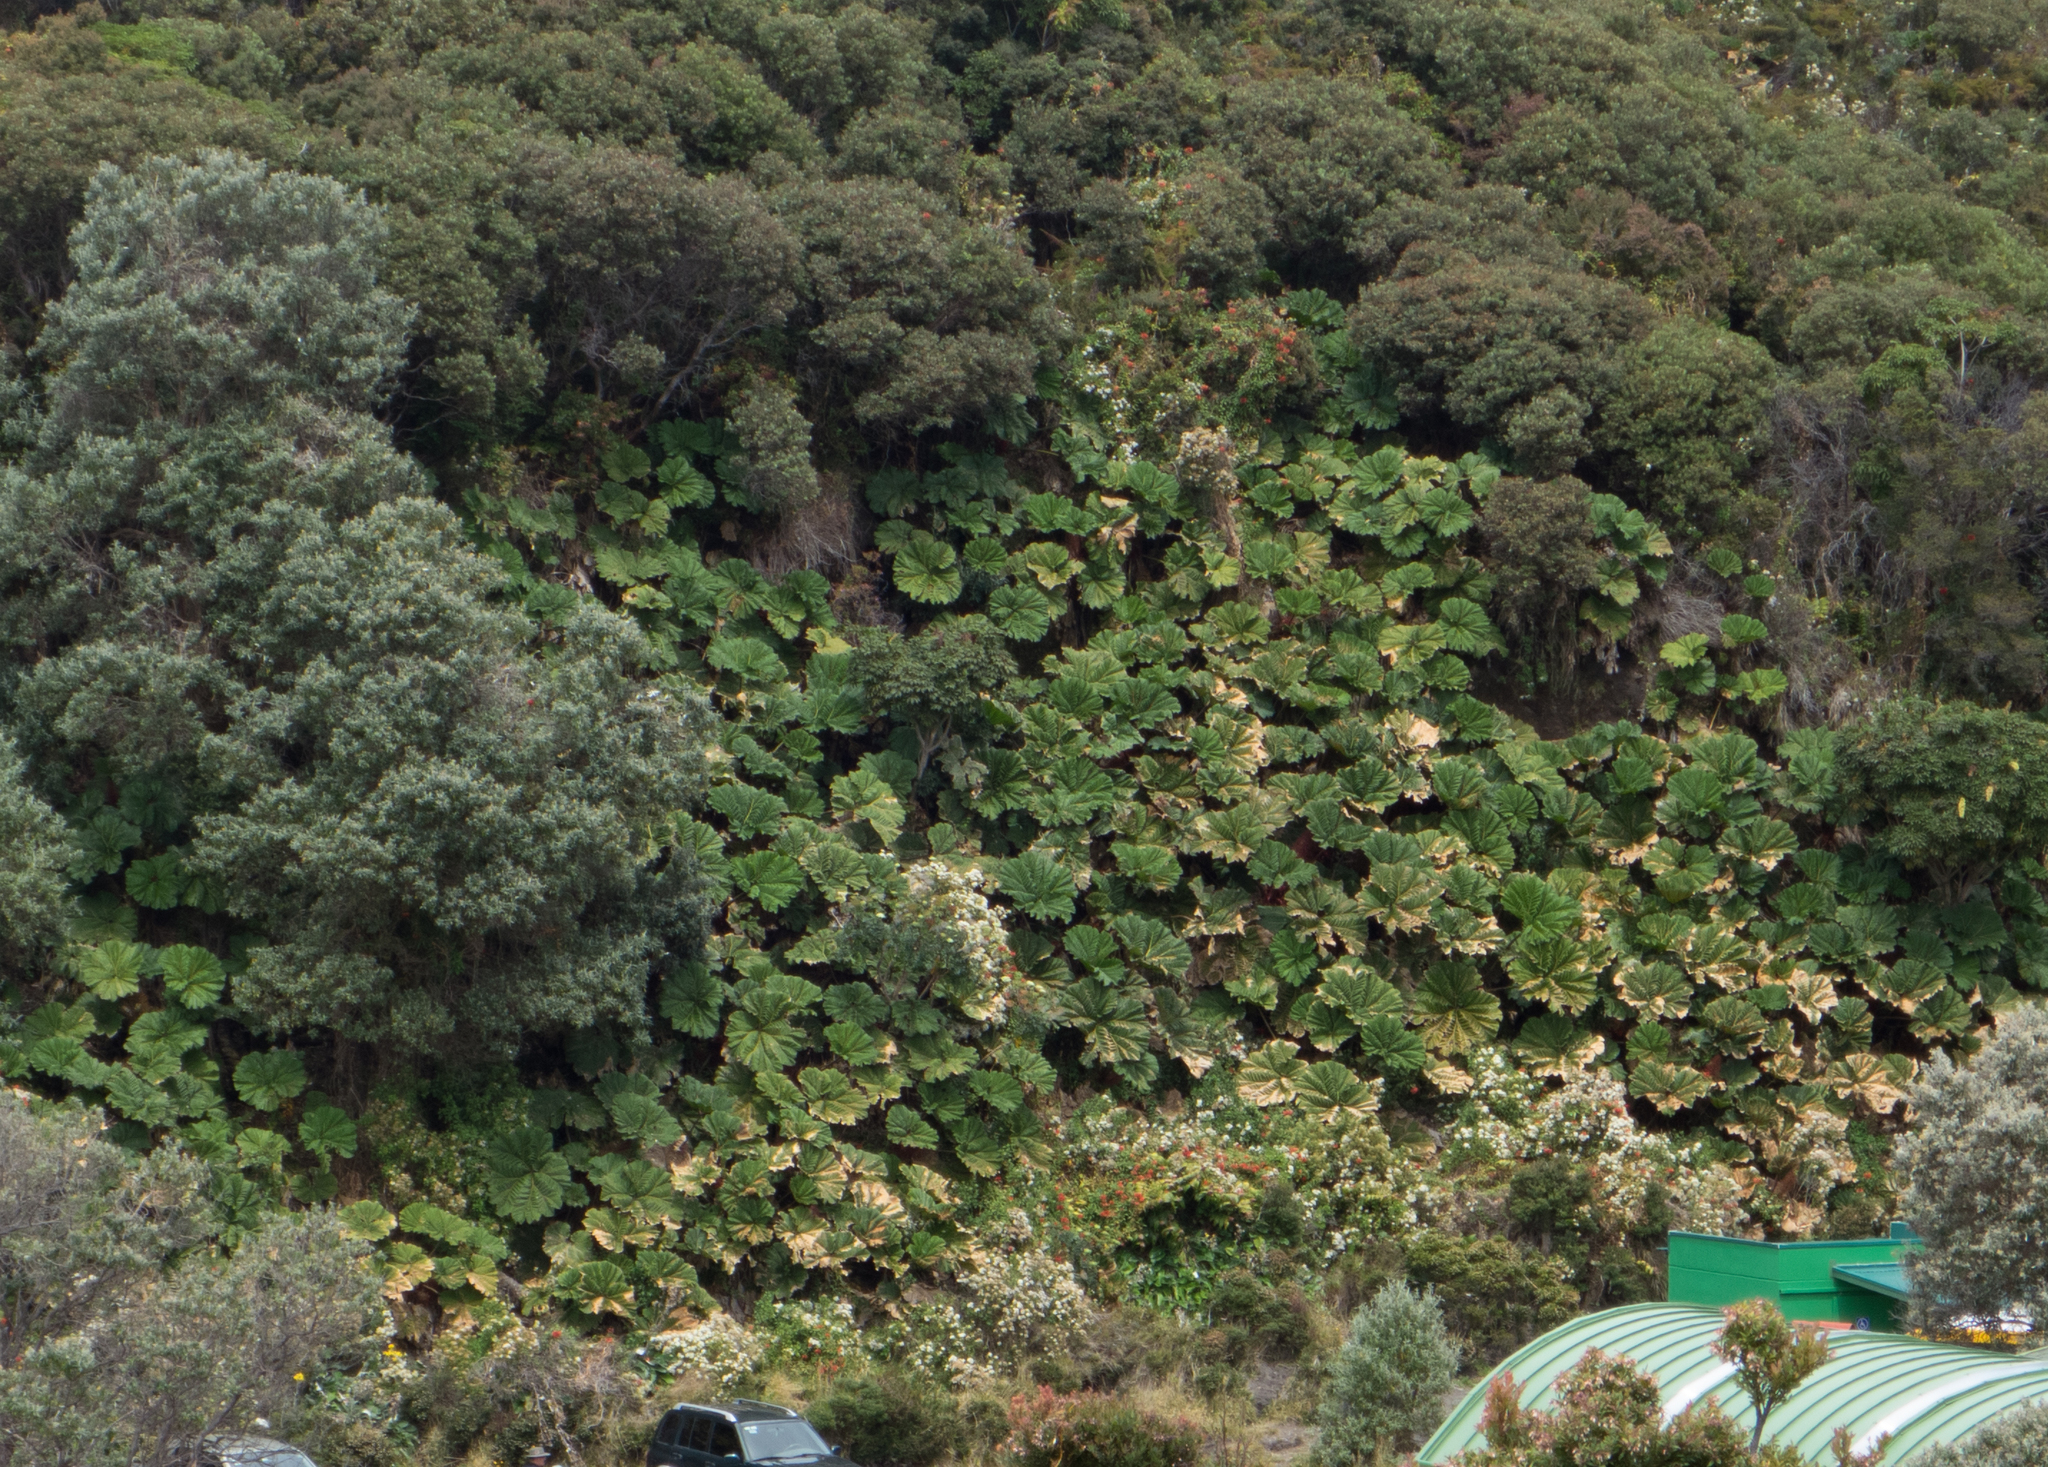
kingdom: Plantae
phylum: Tracheophyta
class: Magnoliopsida
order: Gunnerales
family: Gunneraceae
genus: Gunnera
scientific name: Gunnera insignis
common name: Poorman's umbrella
